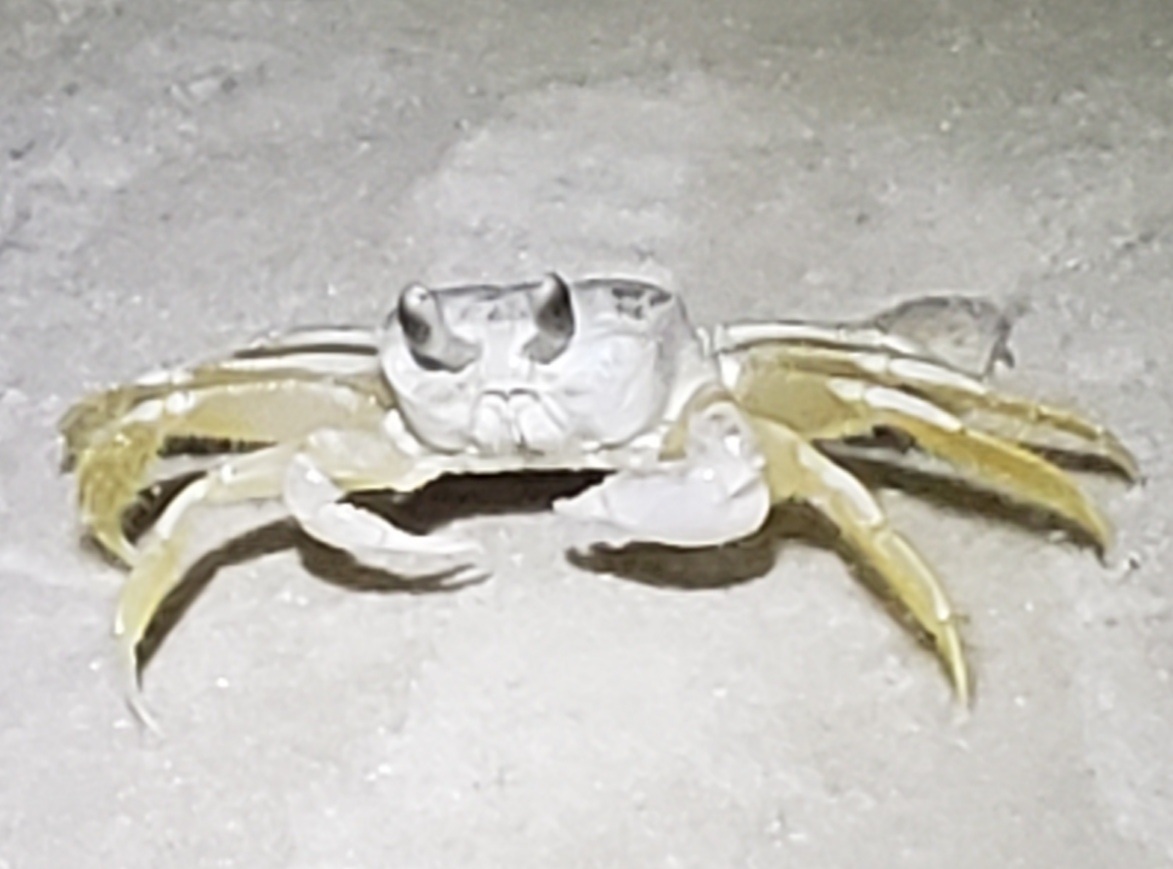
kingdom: Animalia
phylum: Arthropoda
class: Malacostraca
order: Decapoda
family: Ocypodidae
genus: Ocypode
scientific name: Ocypode quadrata
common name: Ghost crab
